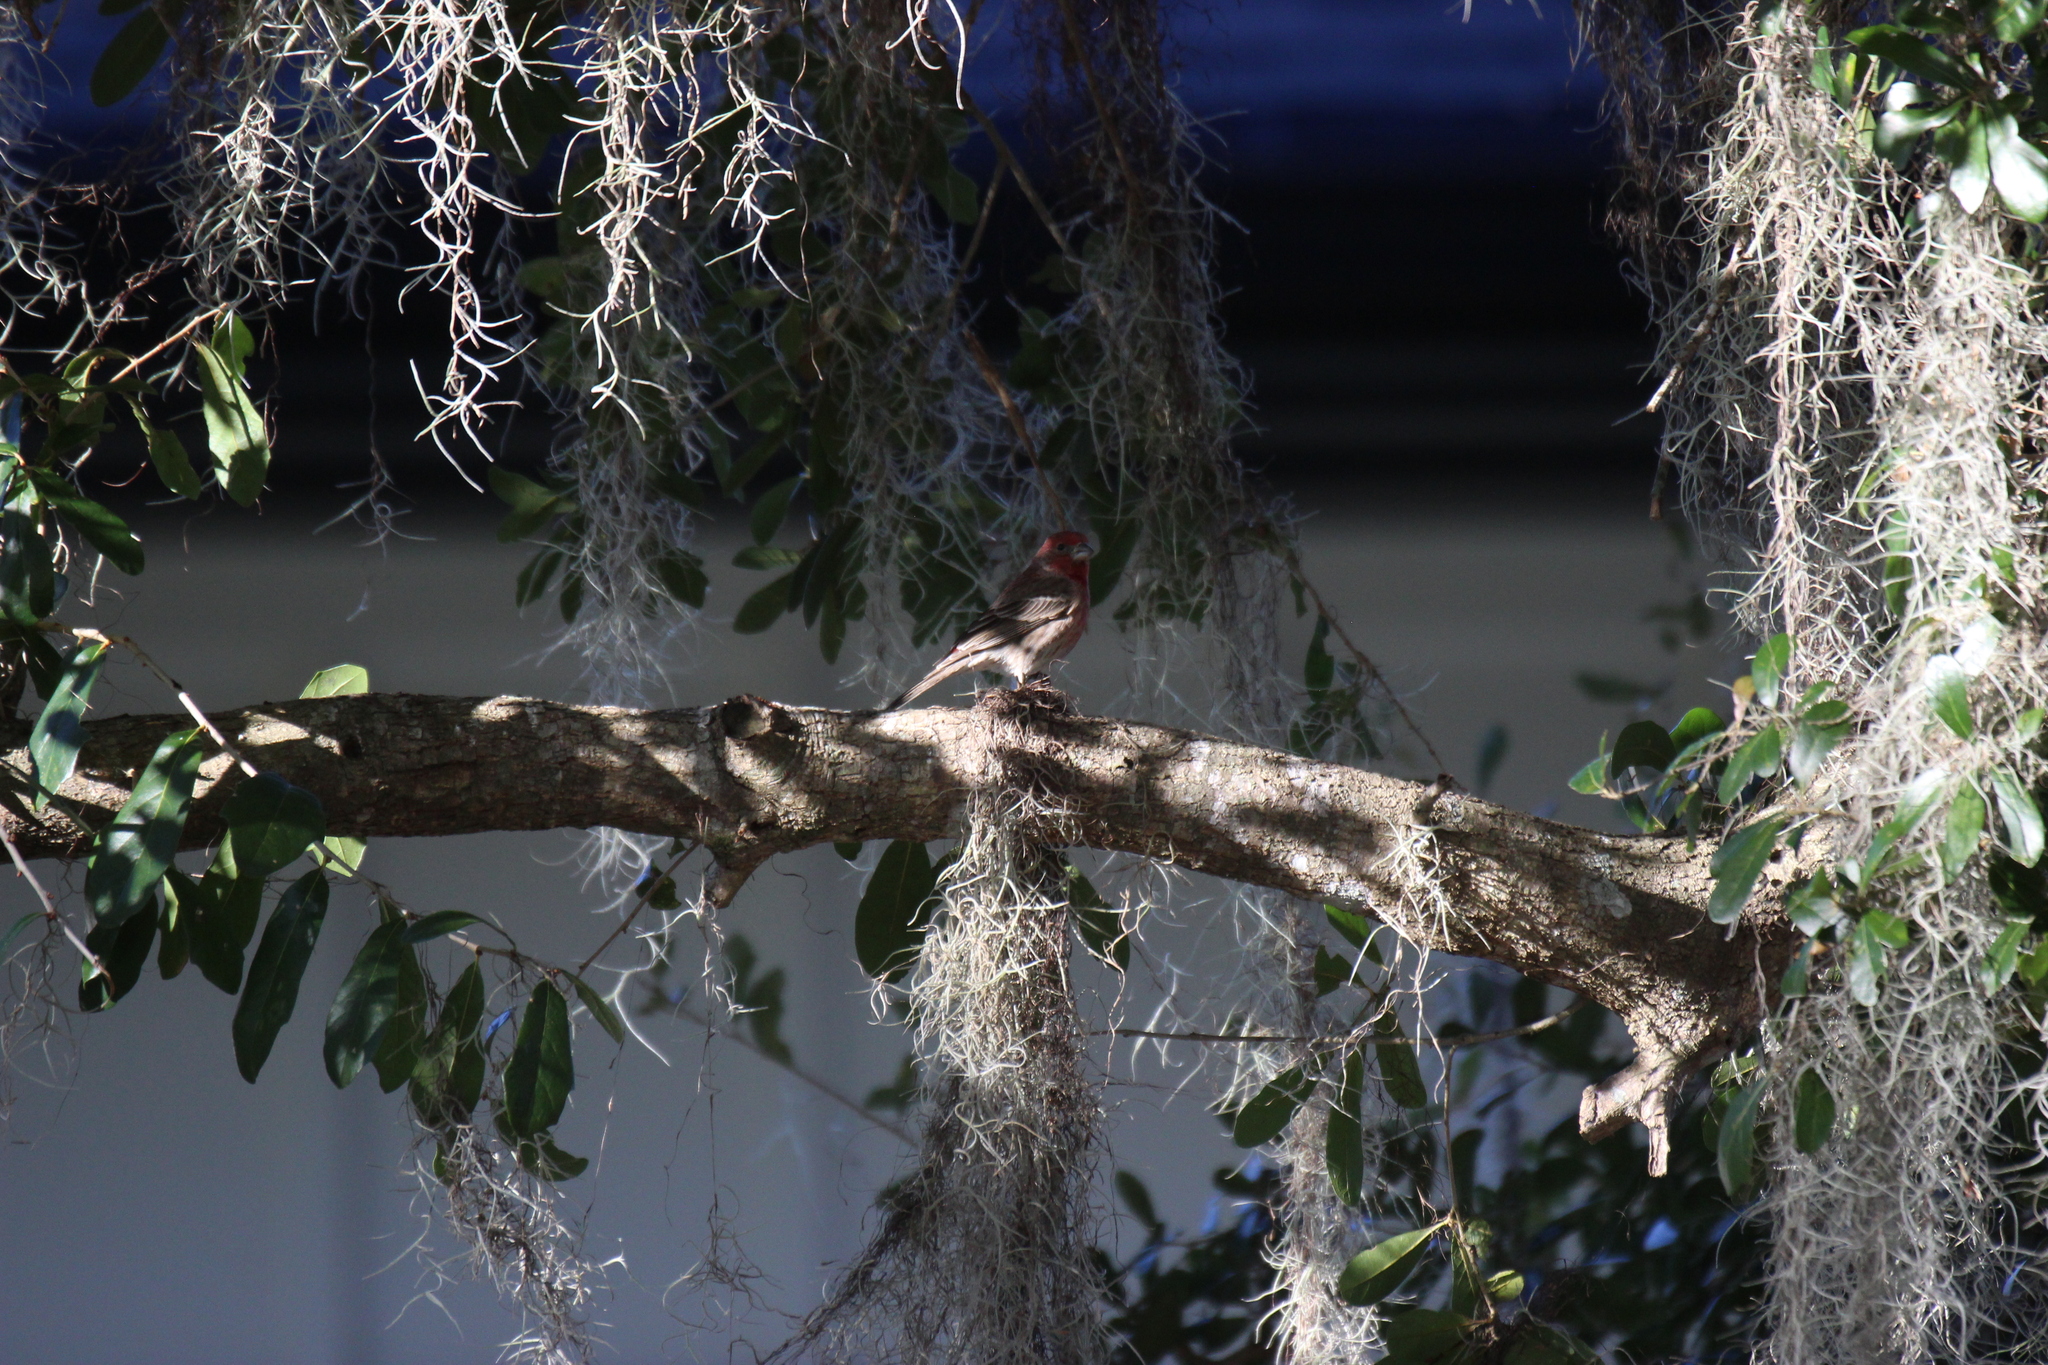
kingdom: Animalia
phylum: Chordata
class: Aves
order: Passeriformes
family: Fringillidae
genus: Haemorhous
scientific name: Haemorhous mexicanus
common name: House finch
